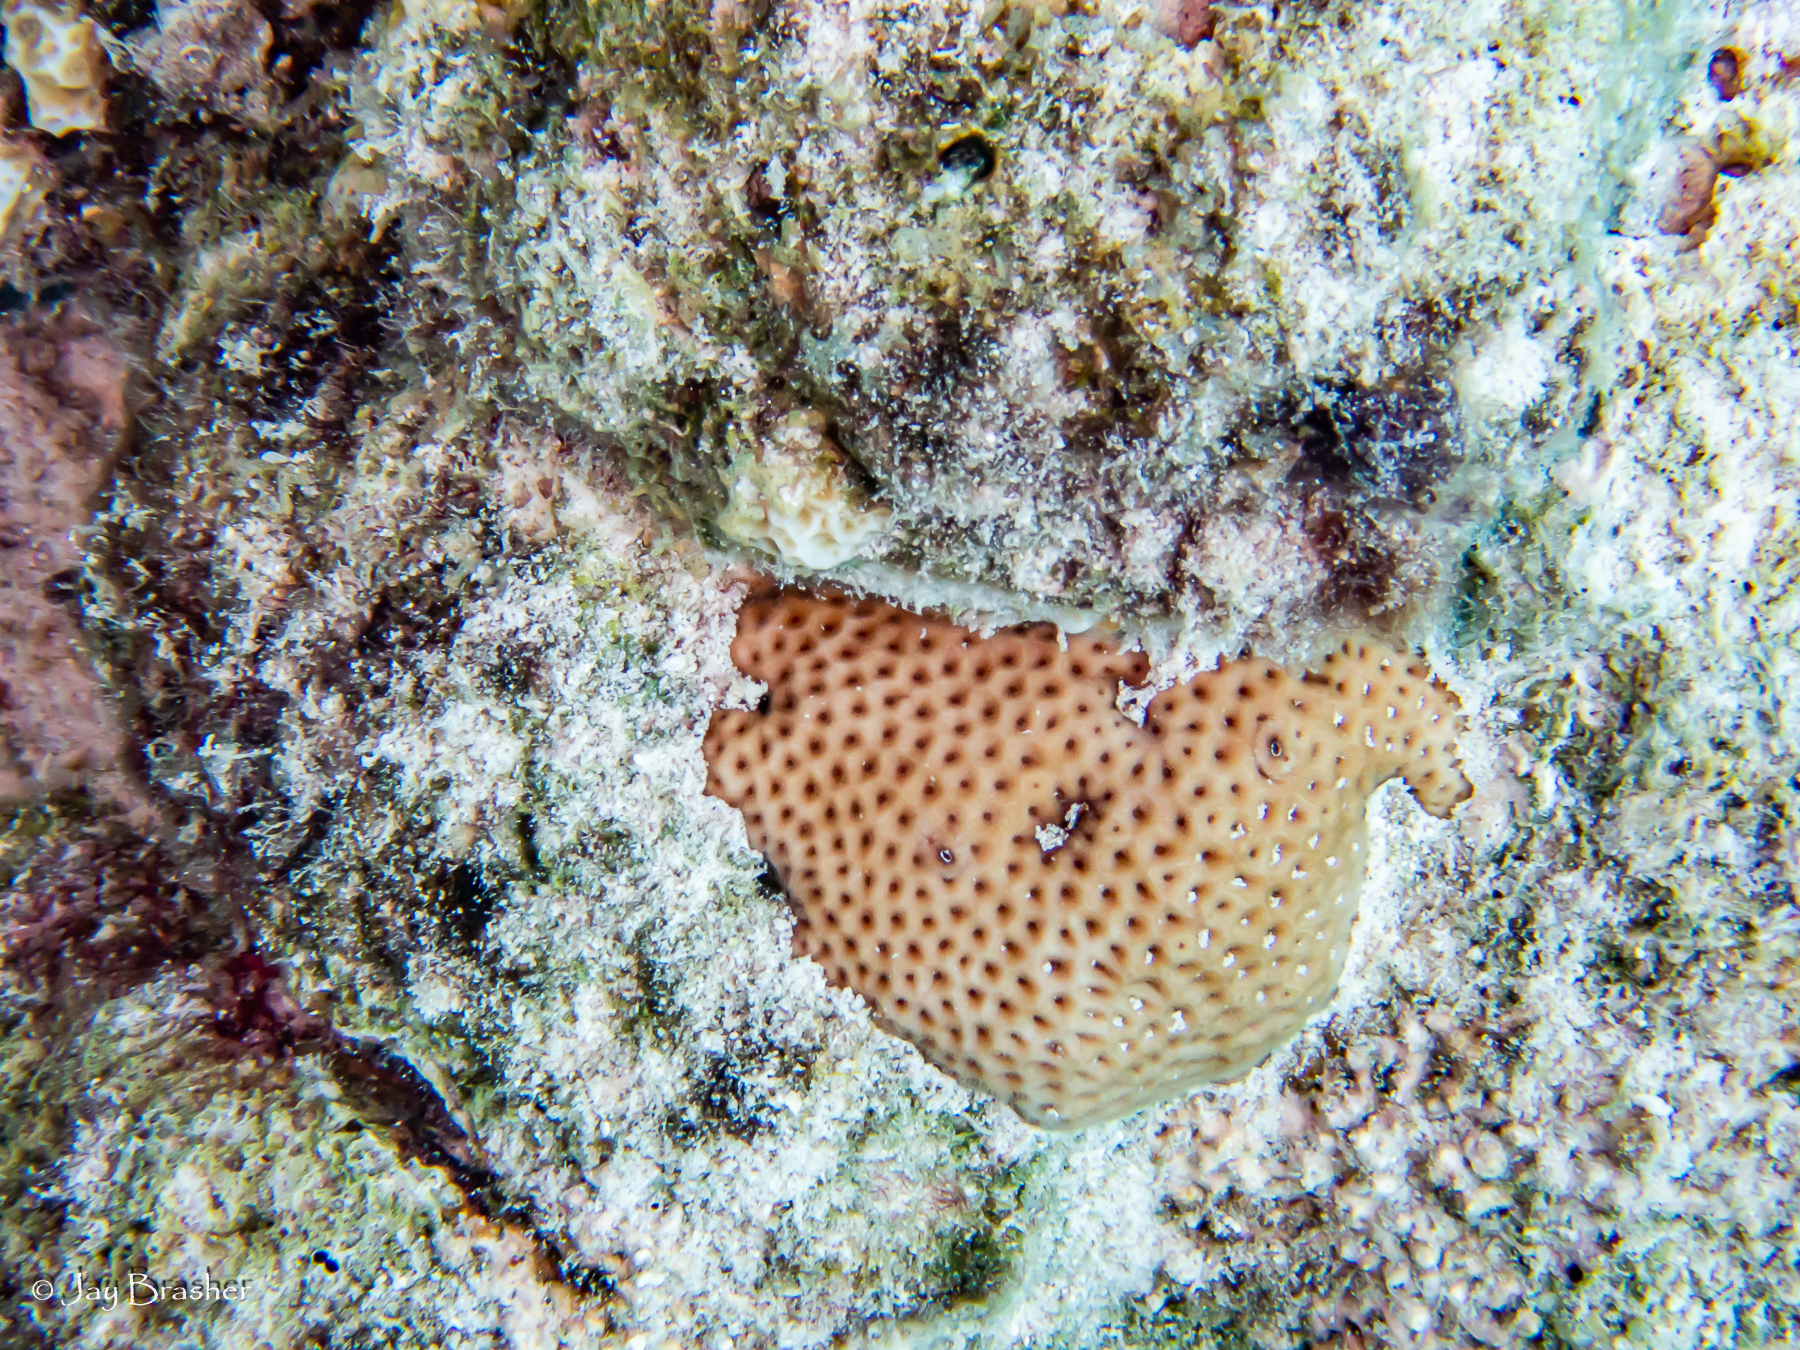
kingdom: Animalia
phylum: Cnidaria
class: Anthozoa
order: Scleractinia
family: Rhizangiidae
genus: Siderastrea
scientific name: Siderastrea siderea
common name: Massive starlet coral
